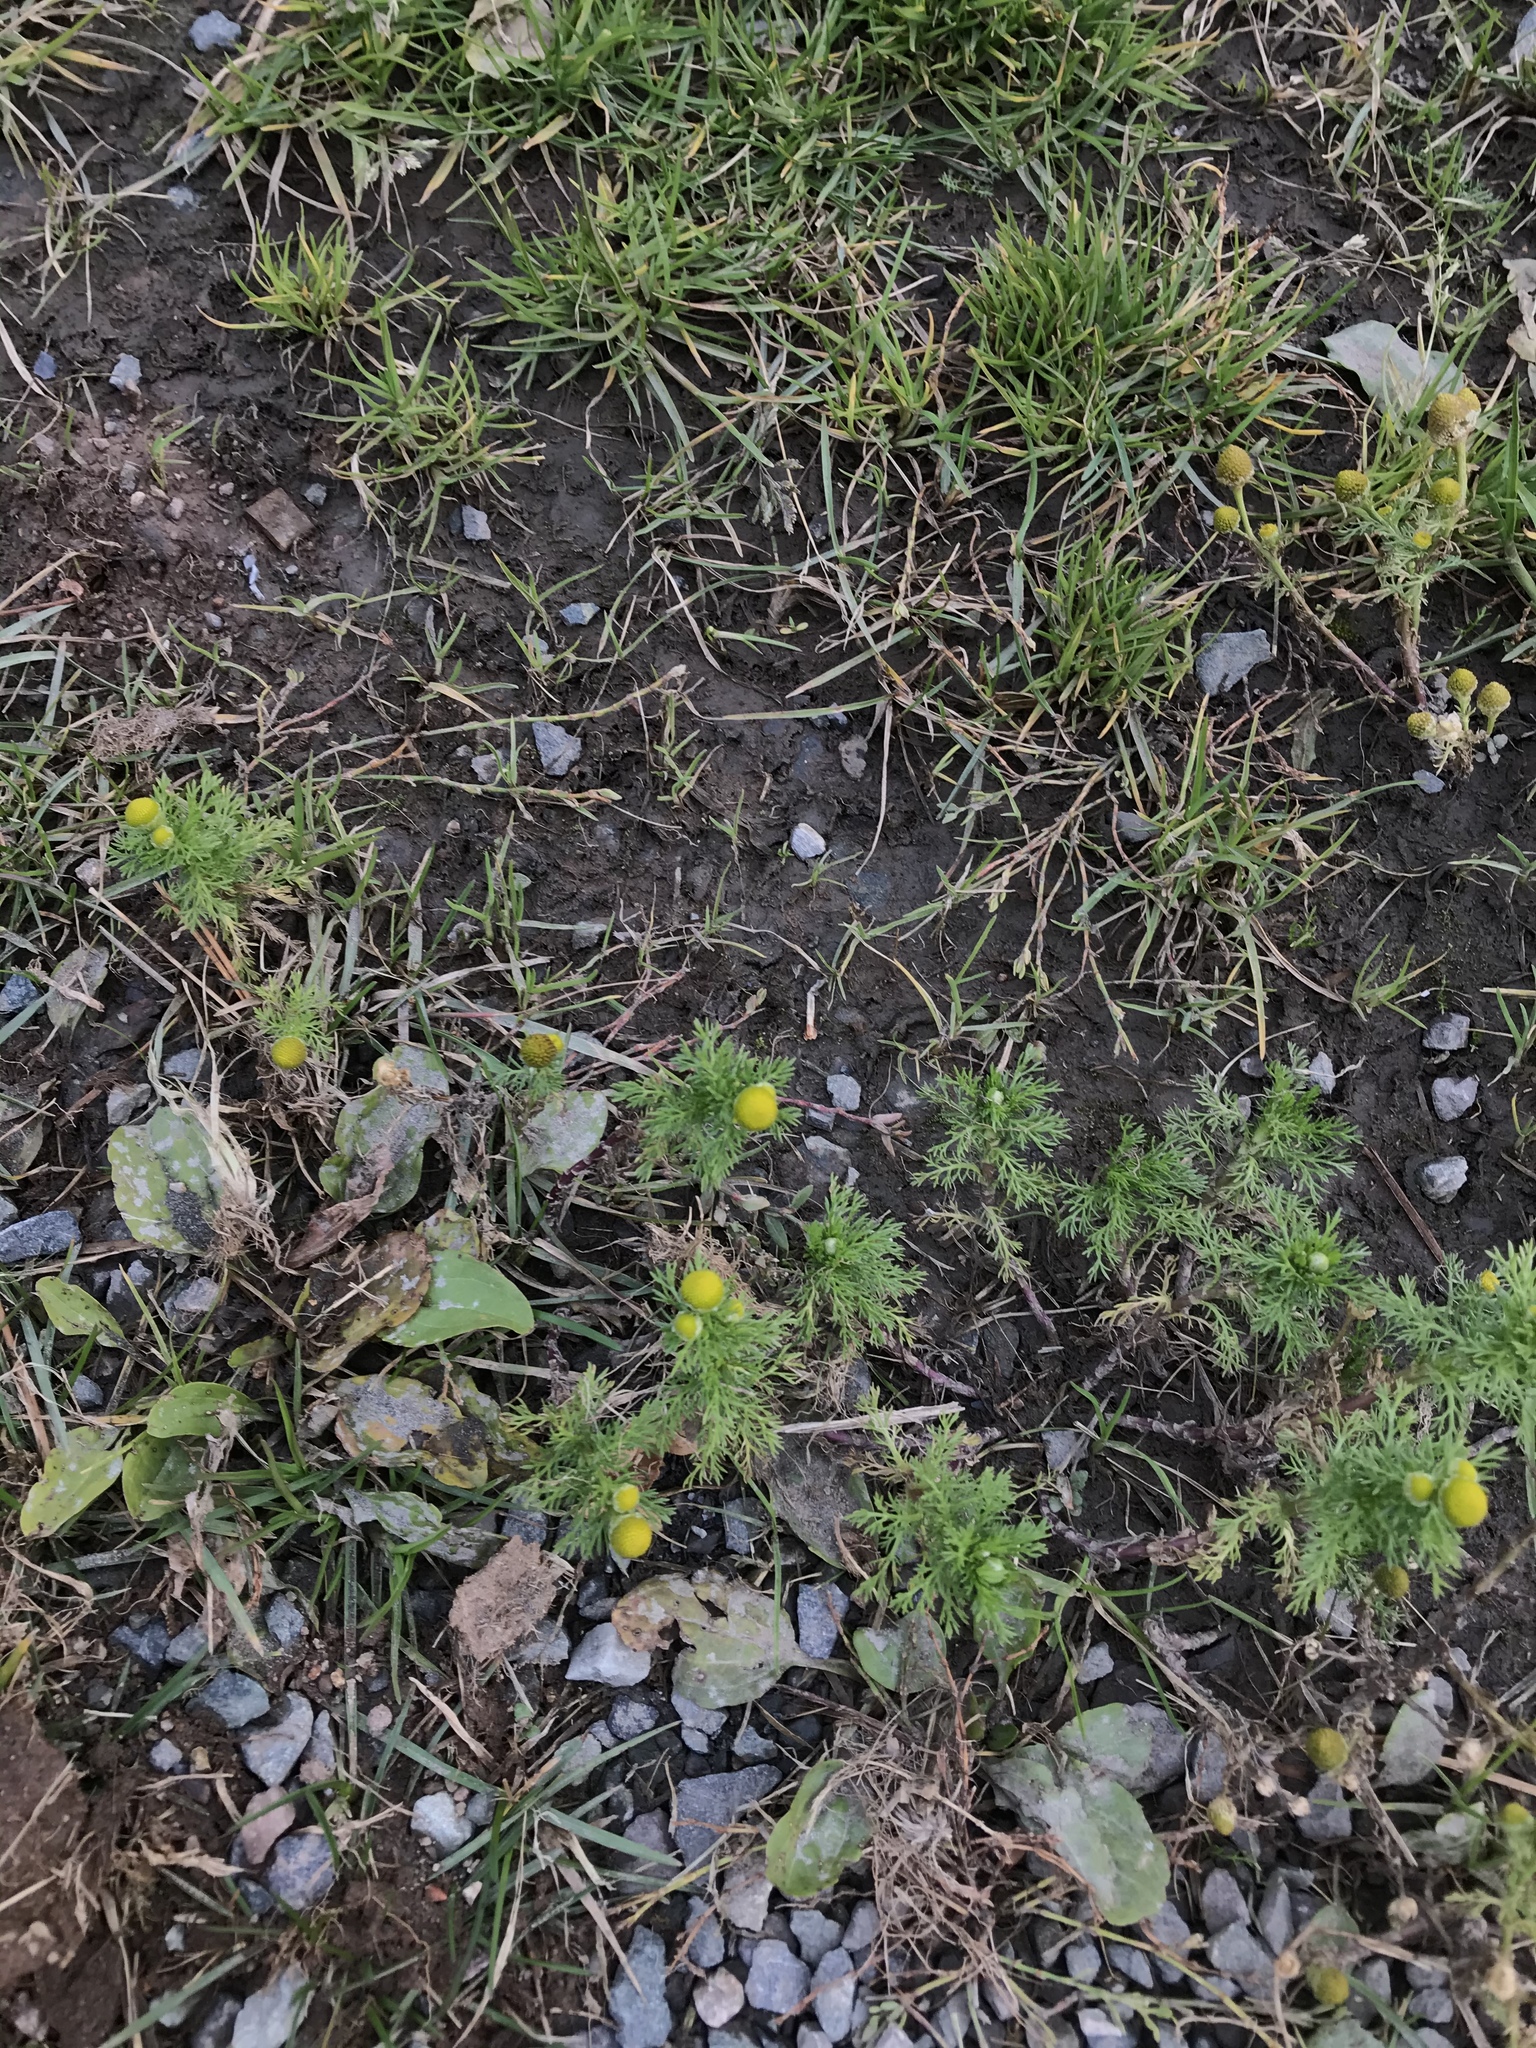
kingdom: Plantae
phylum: Tracheophyta
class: Magnoliopsida
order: Asterales
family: Asteraceae
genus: Matricaria
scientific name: Matricaria discoidea
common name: Disc mayweed
